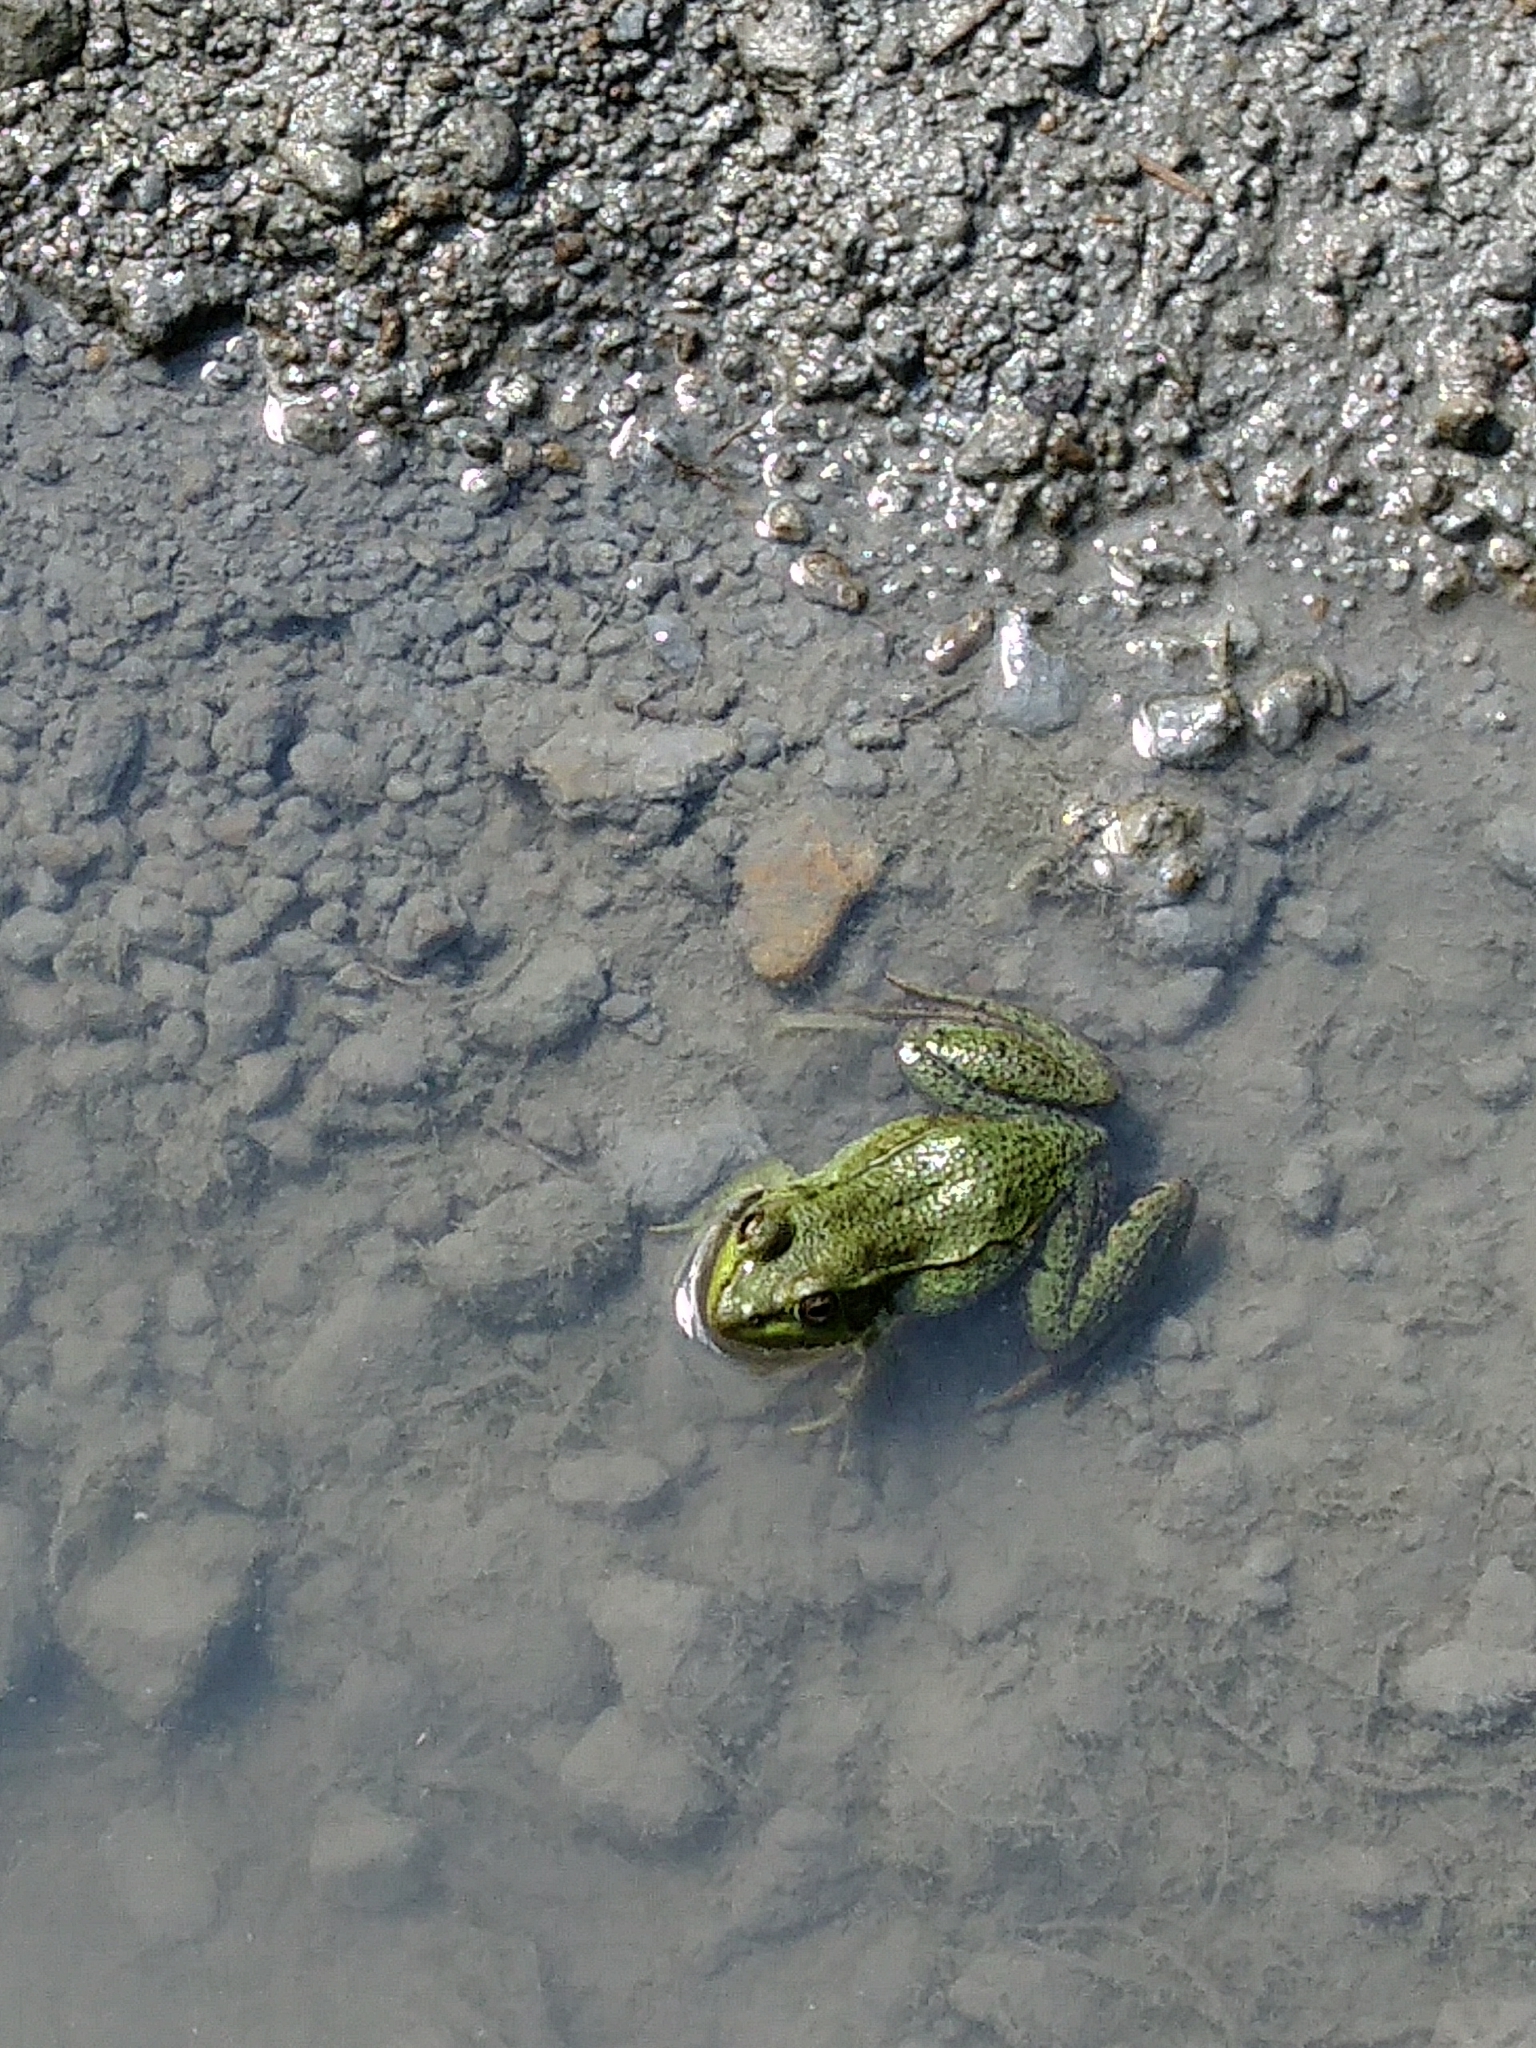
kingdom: Animalia
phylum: Chordata
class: Amphibia
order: Anura
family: Ranidae
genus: Lithobates
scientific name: Lithobates clamitans
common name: Green frog
